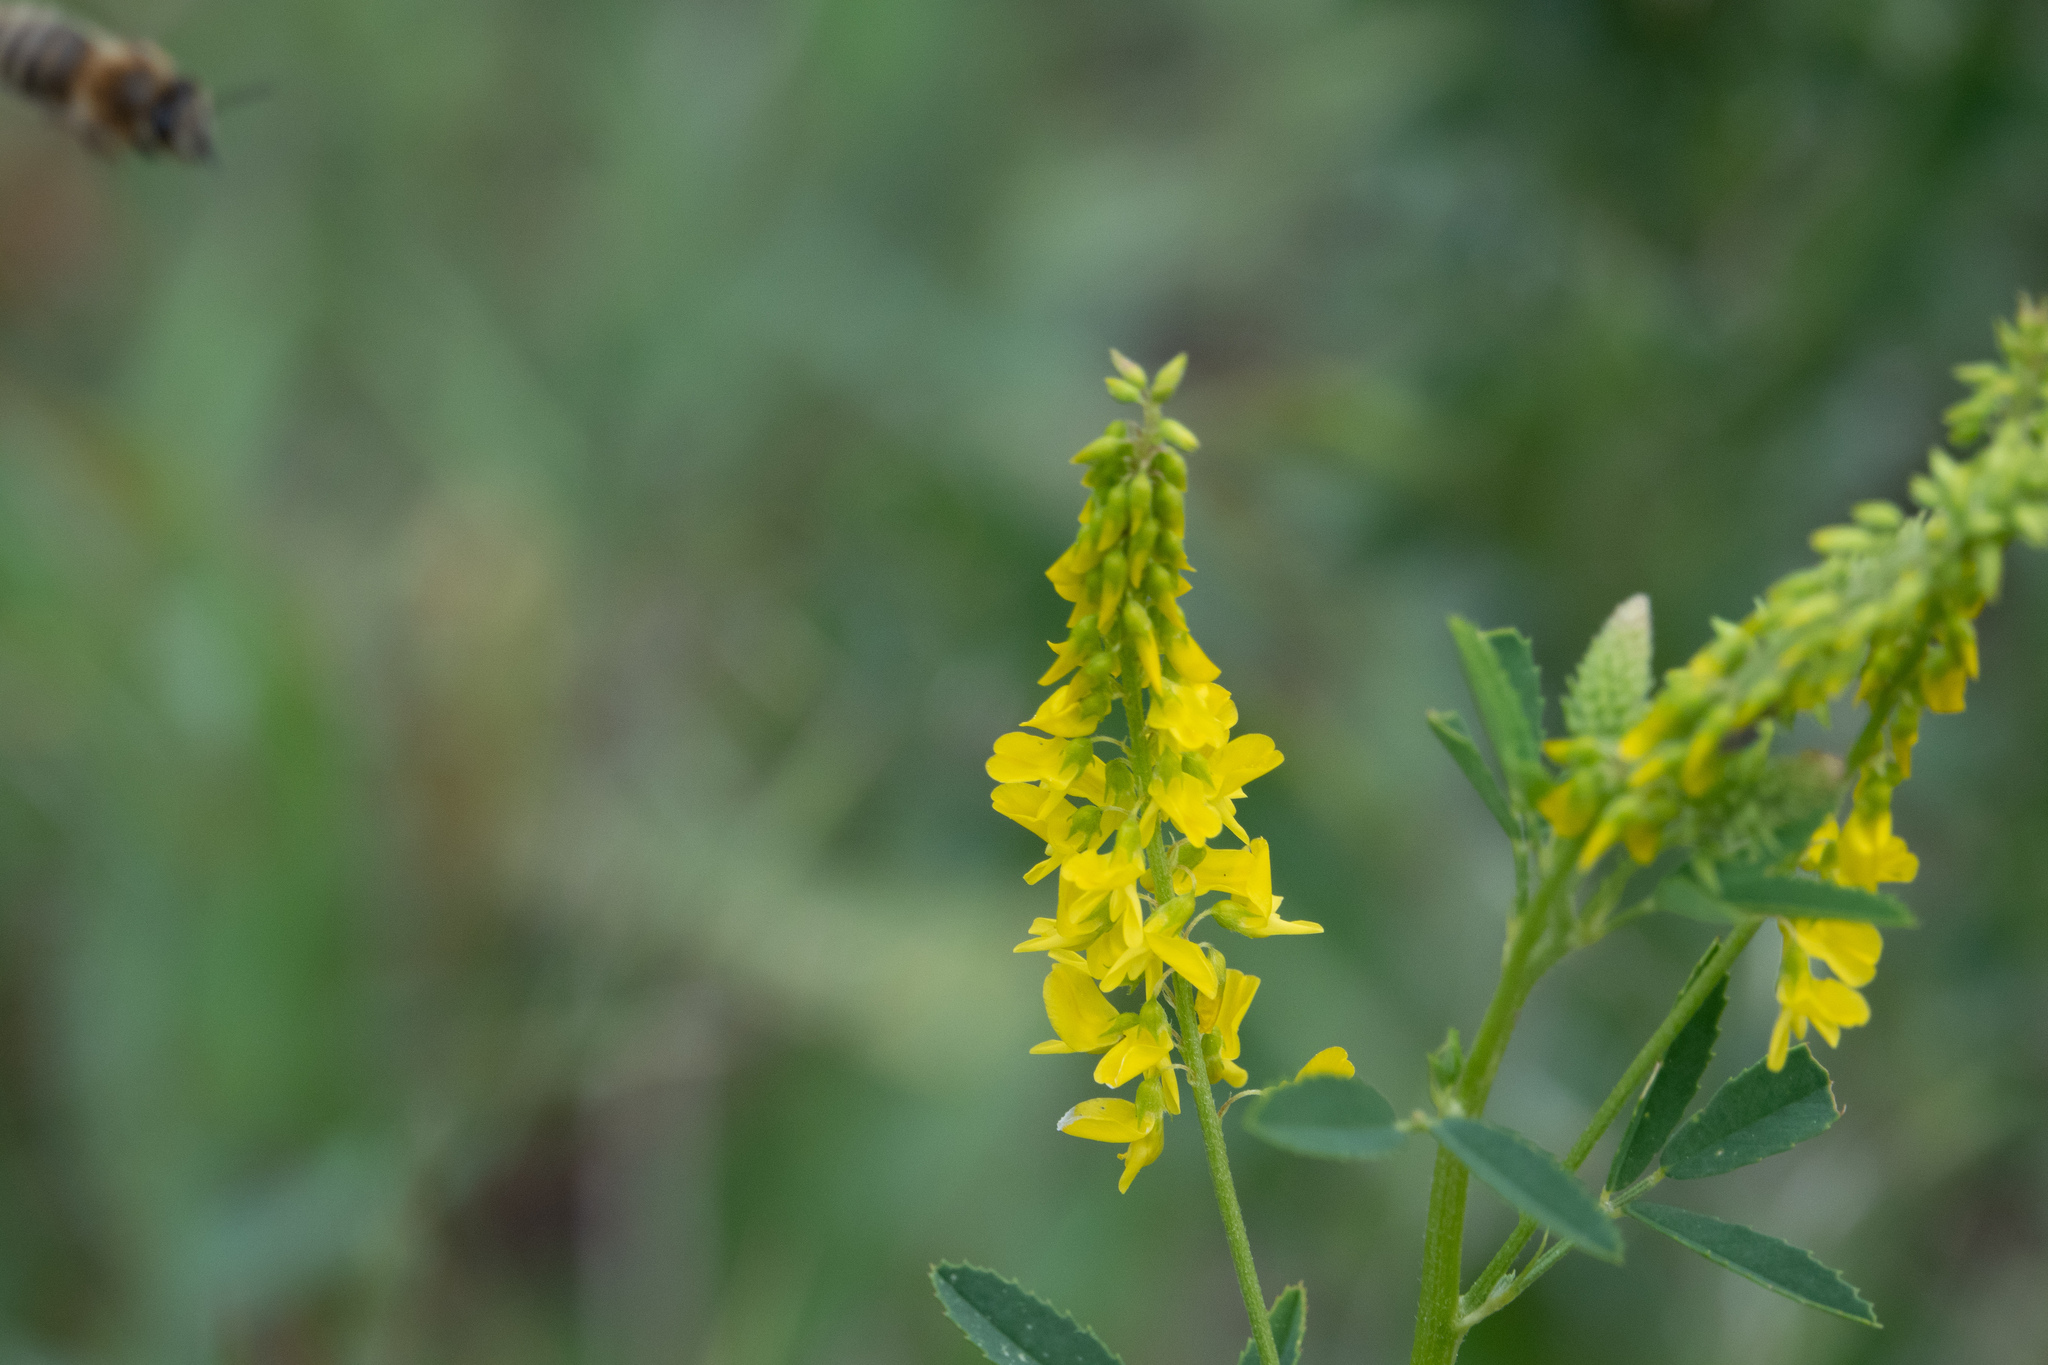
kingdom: Plantae
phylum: Tracheophyta
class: Magnoliopsida
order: Fabales
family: Fabaceae
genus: Melilotus
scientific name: Melilotus officinalis
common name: Sweetclover
